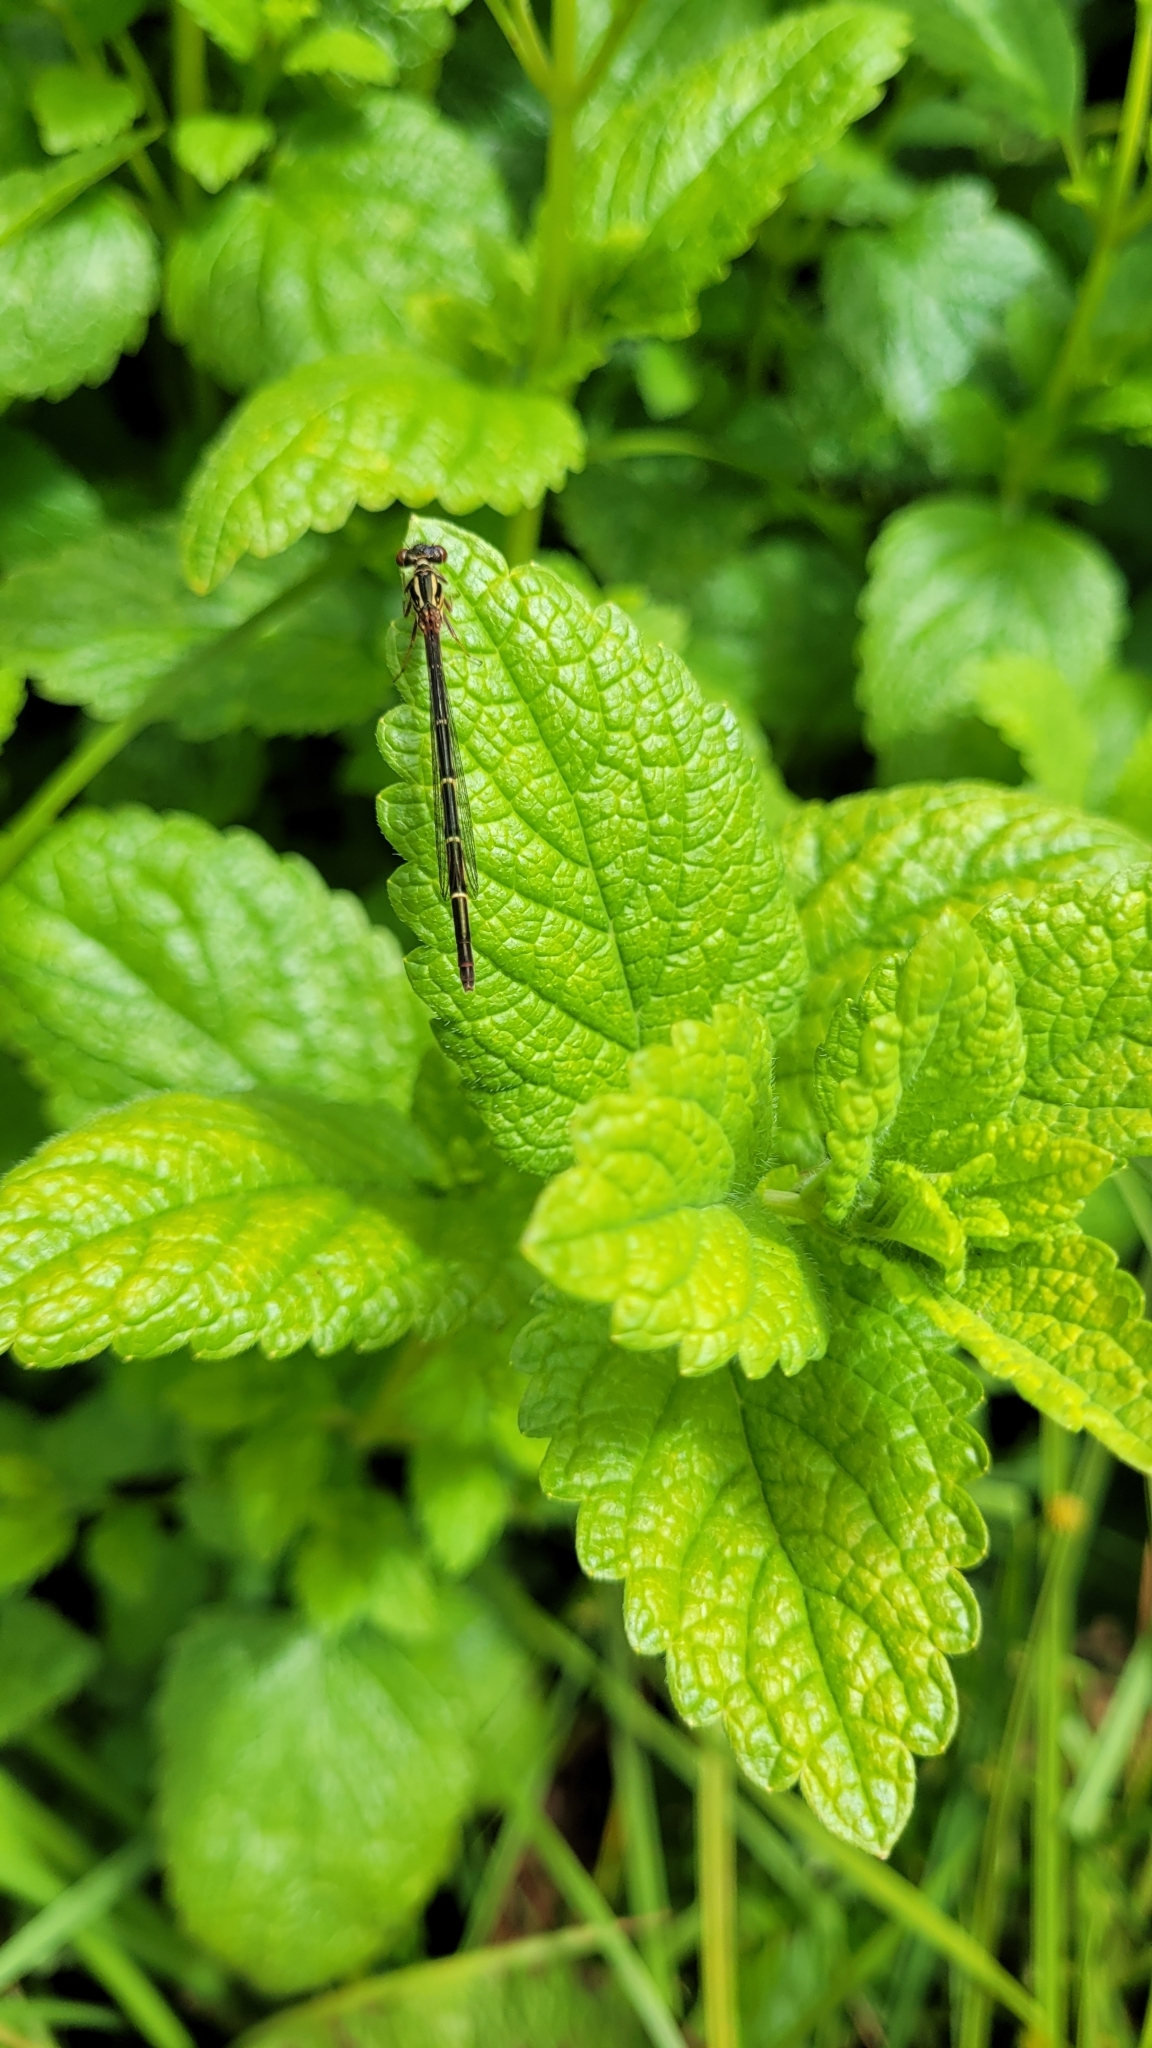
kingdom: Animalia
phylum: Arthropoda
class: Insecta
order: Odonata
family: Coenagrionidae
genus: Xanthocnemis
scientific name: Xanthocnemis zealandica
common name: Common redcoat damselfly
